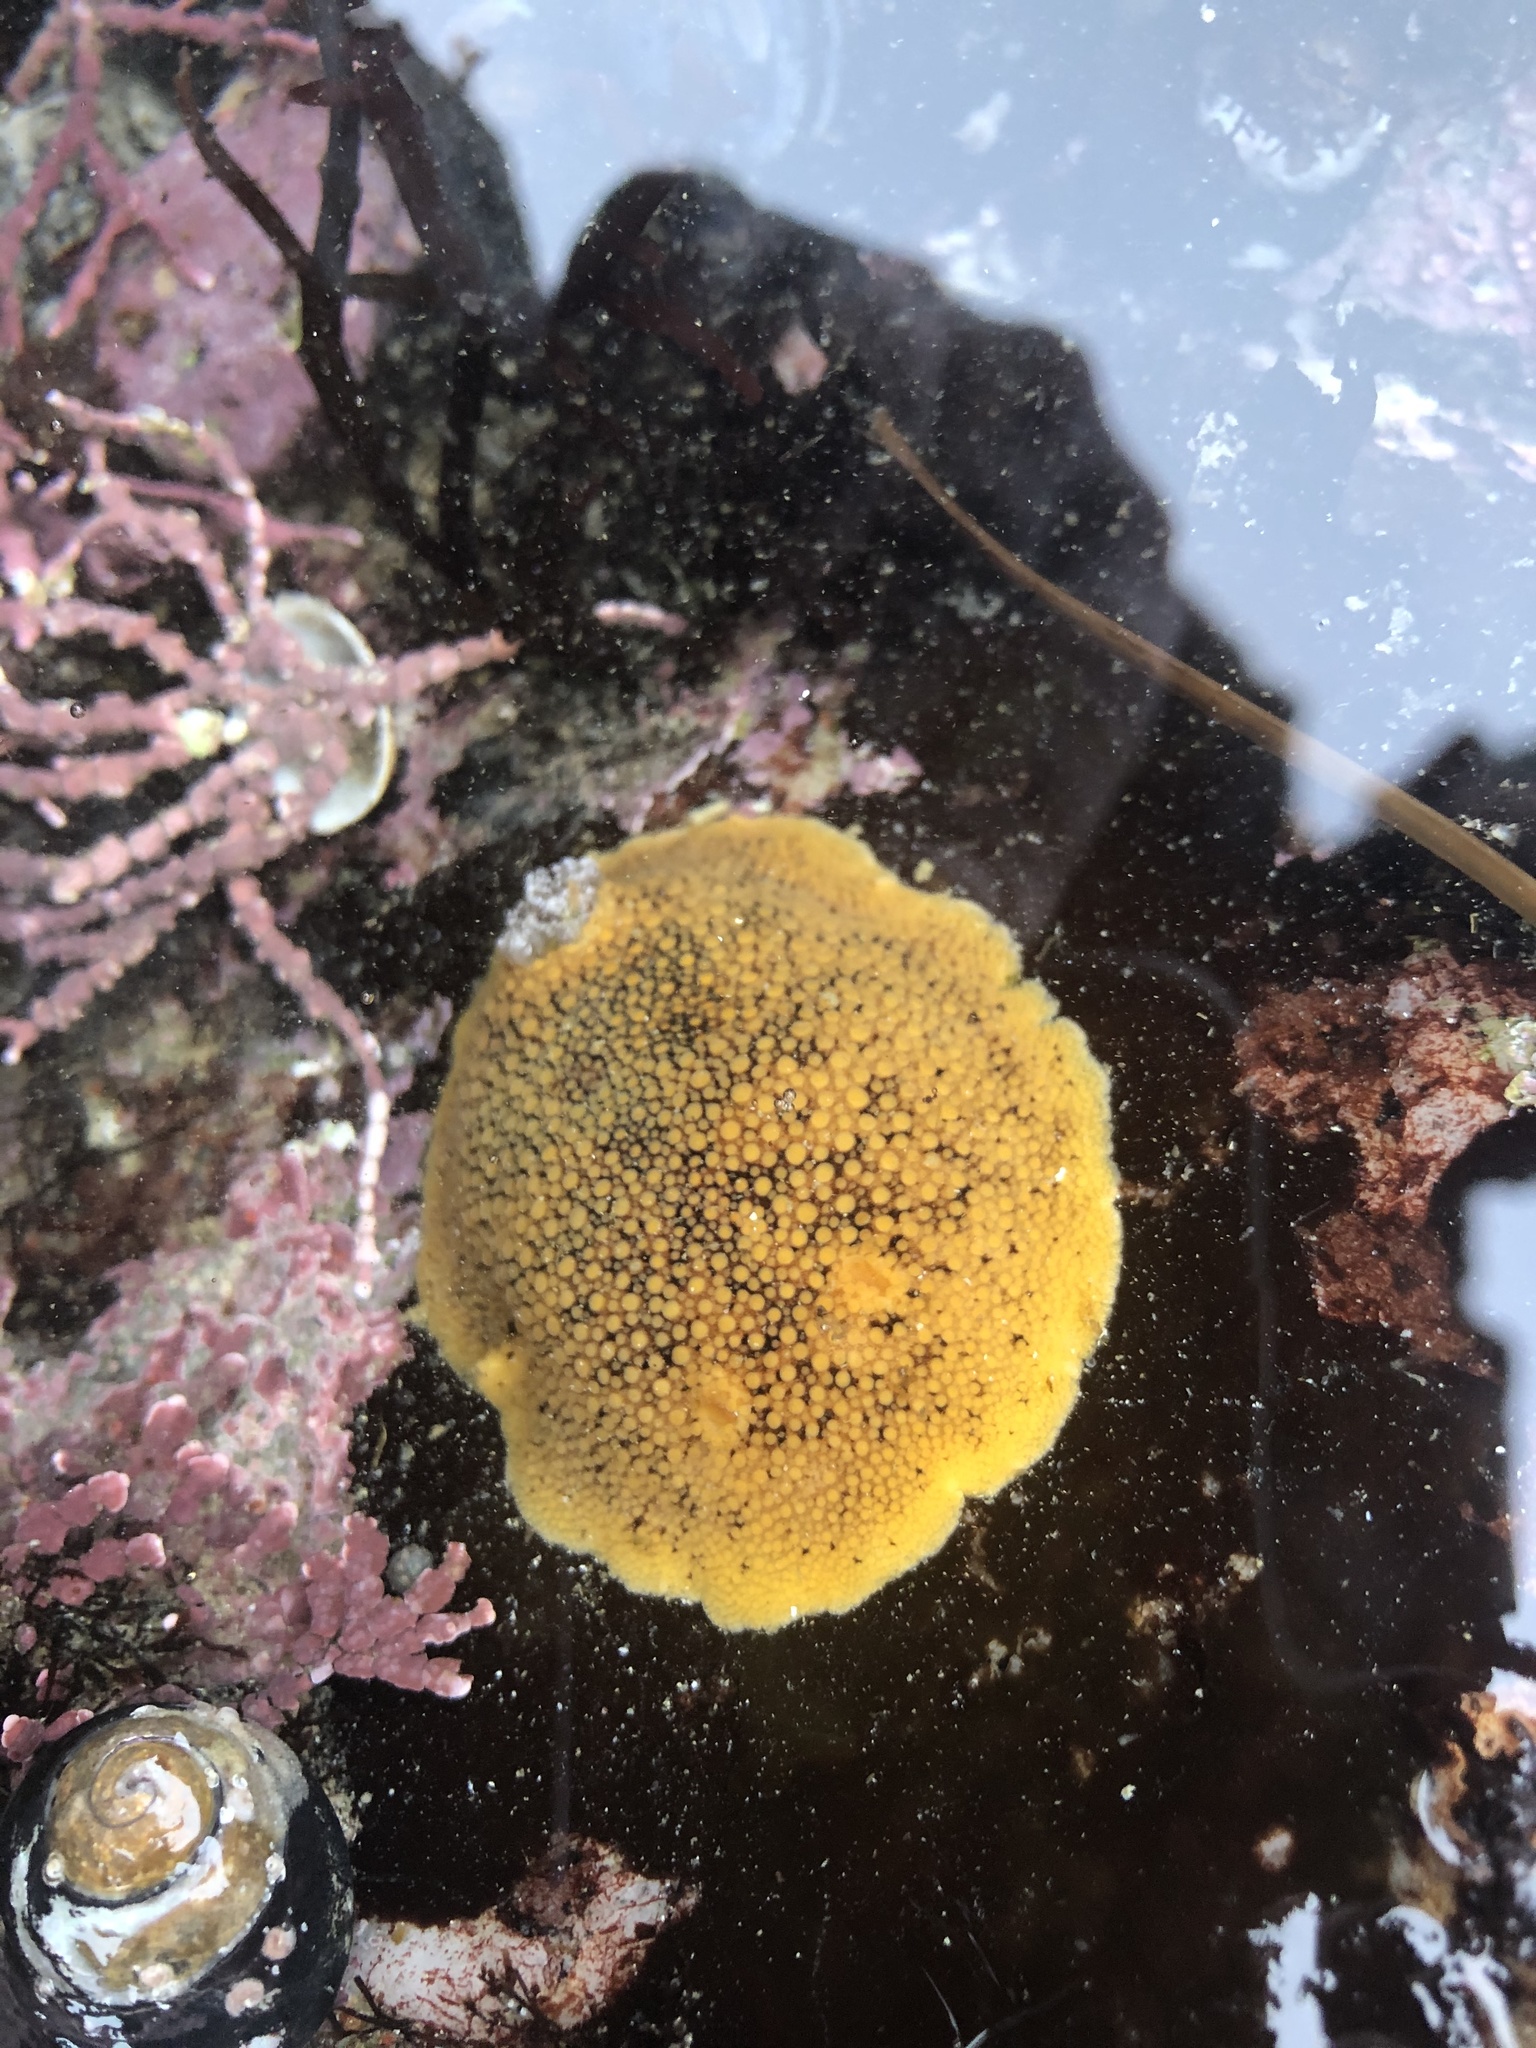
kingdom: Animalia
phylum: Mollusca
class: Gastropoda
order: Nudibranchia
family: Discodorididae
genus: Peltodoris
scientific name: Peltodoris nobilis
